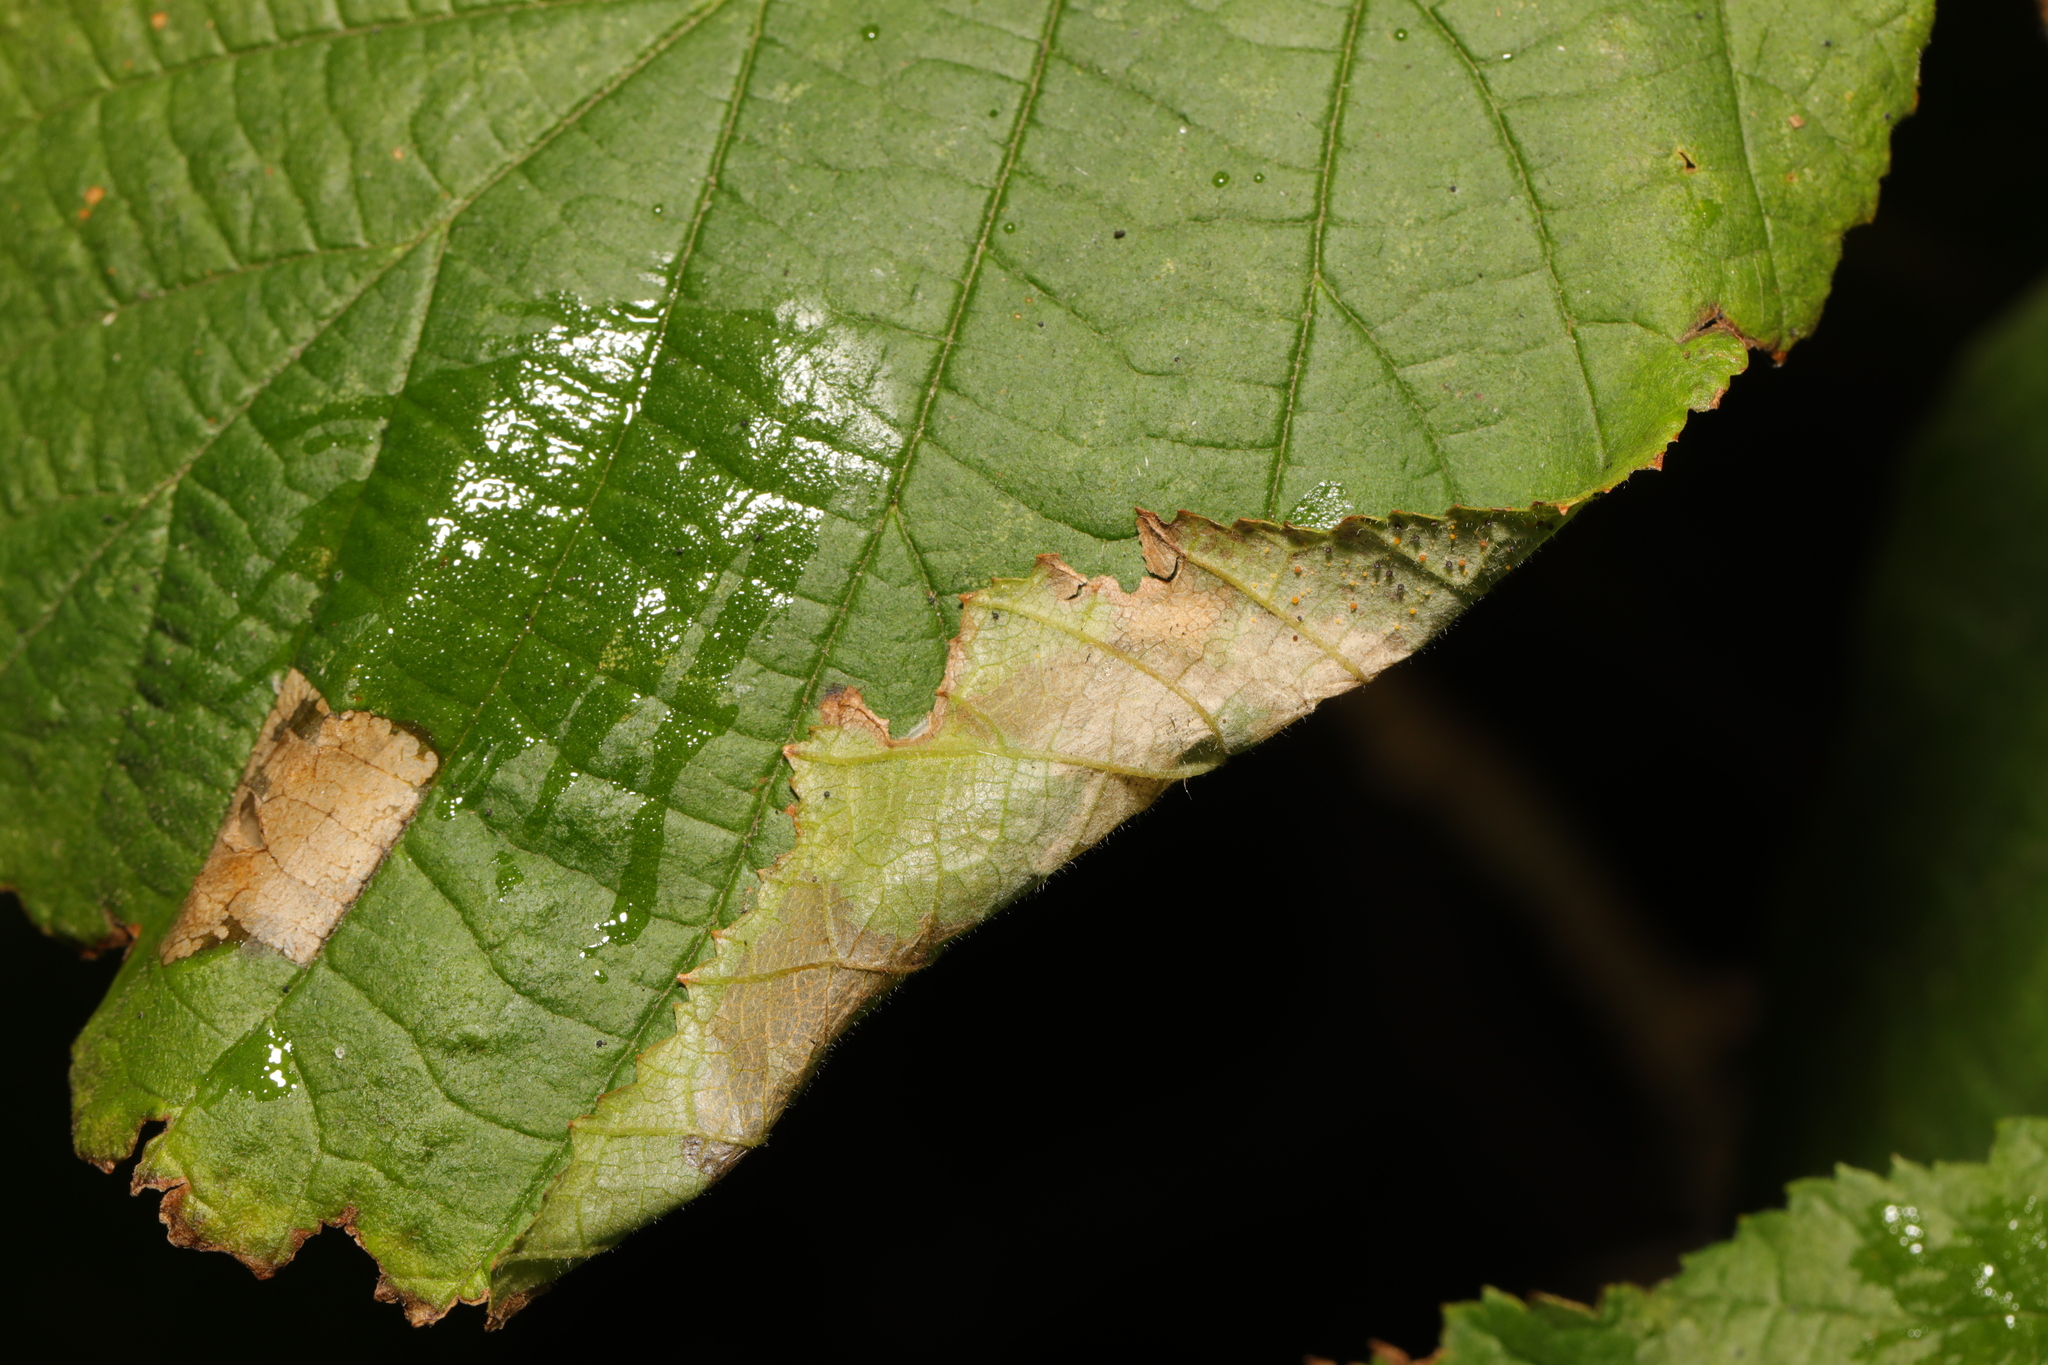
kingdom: Animalia
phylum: Arthropoda
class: Insecta
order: Lepidoptera
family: Gracillariidae
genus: Parornix
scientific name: Parornix devoniella
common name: Hazel slender
